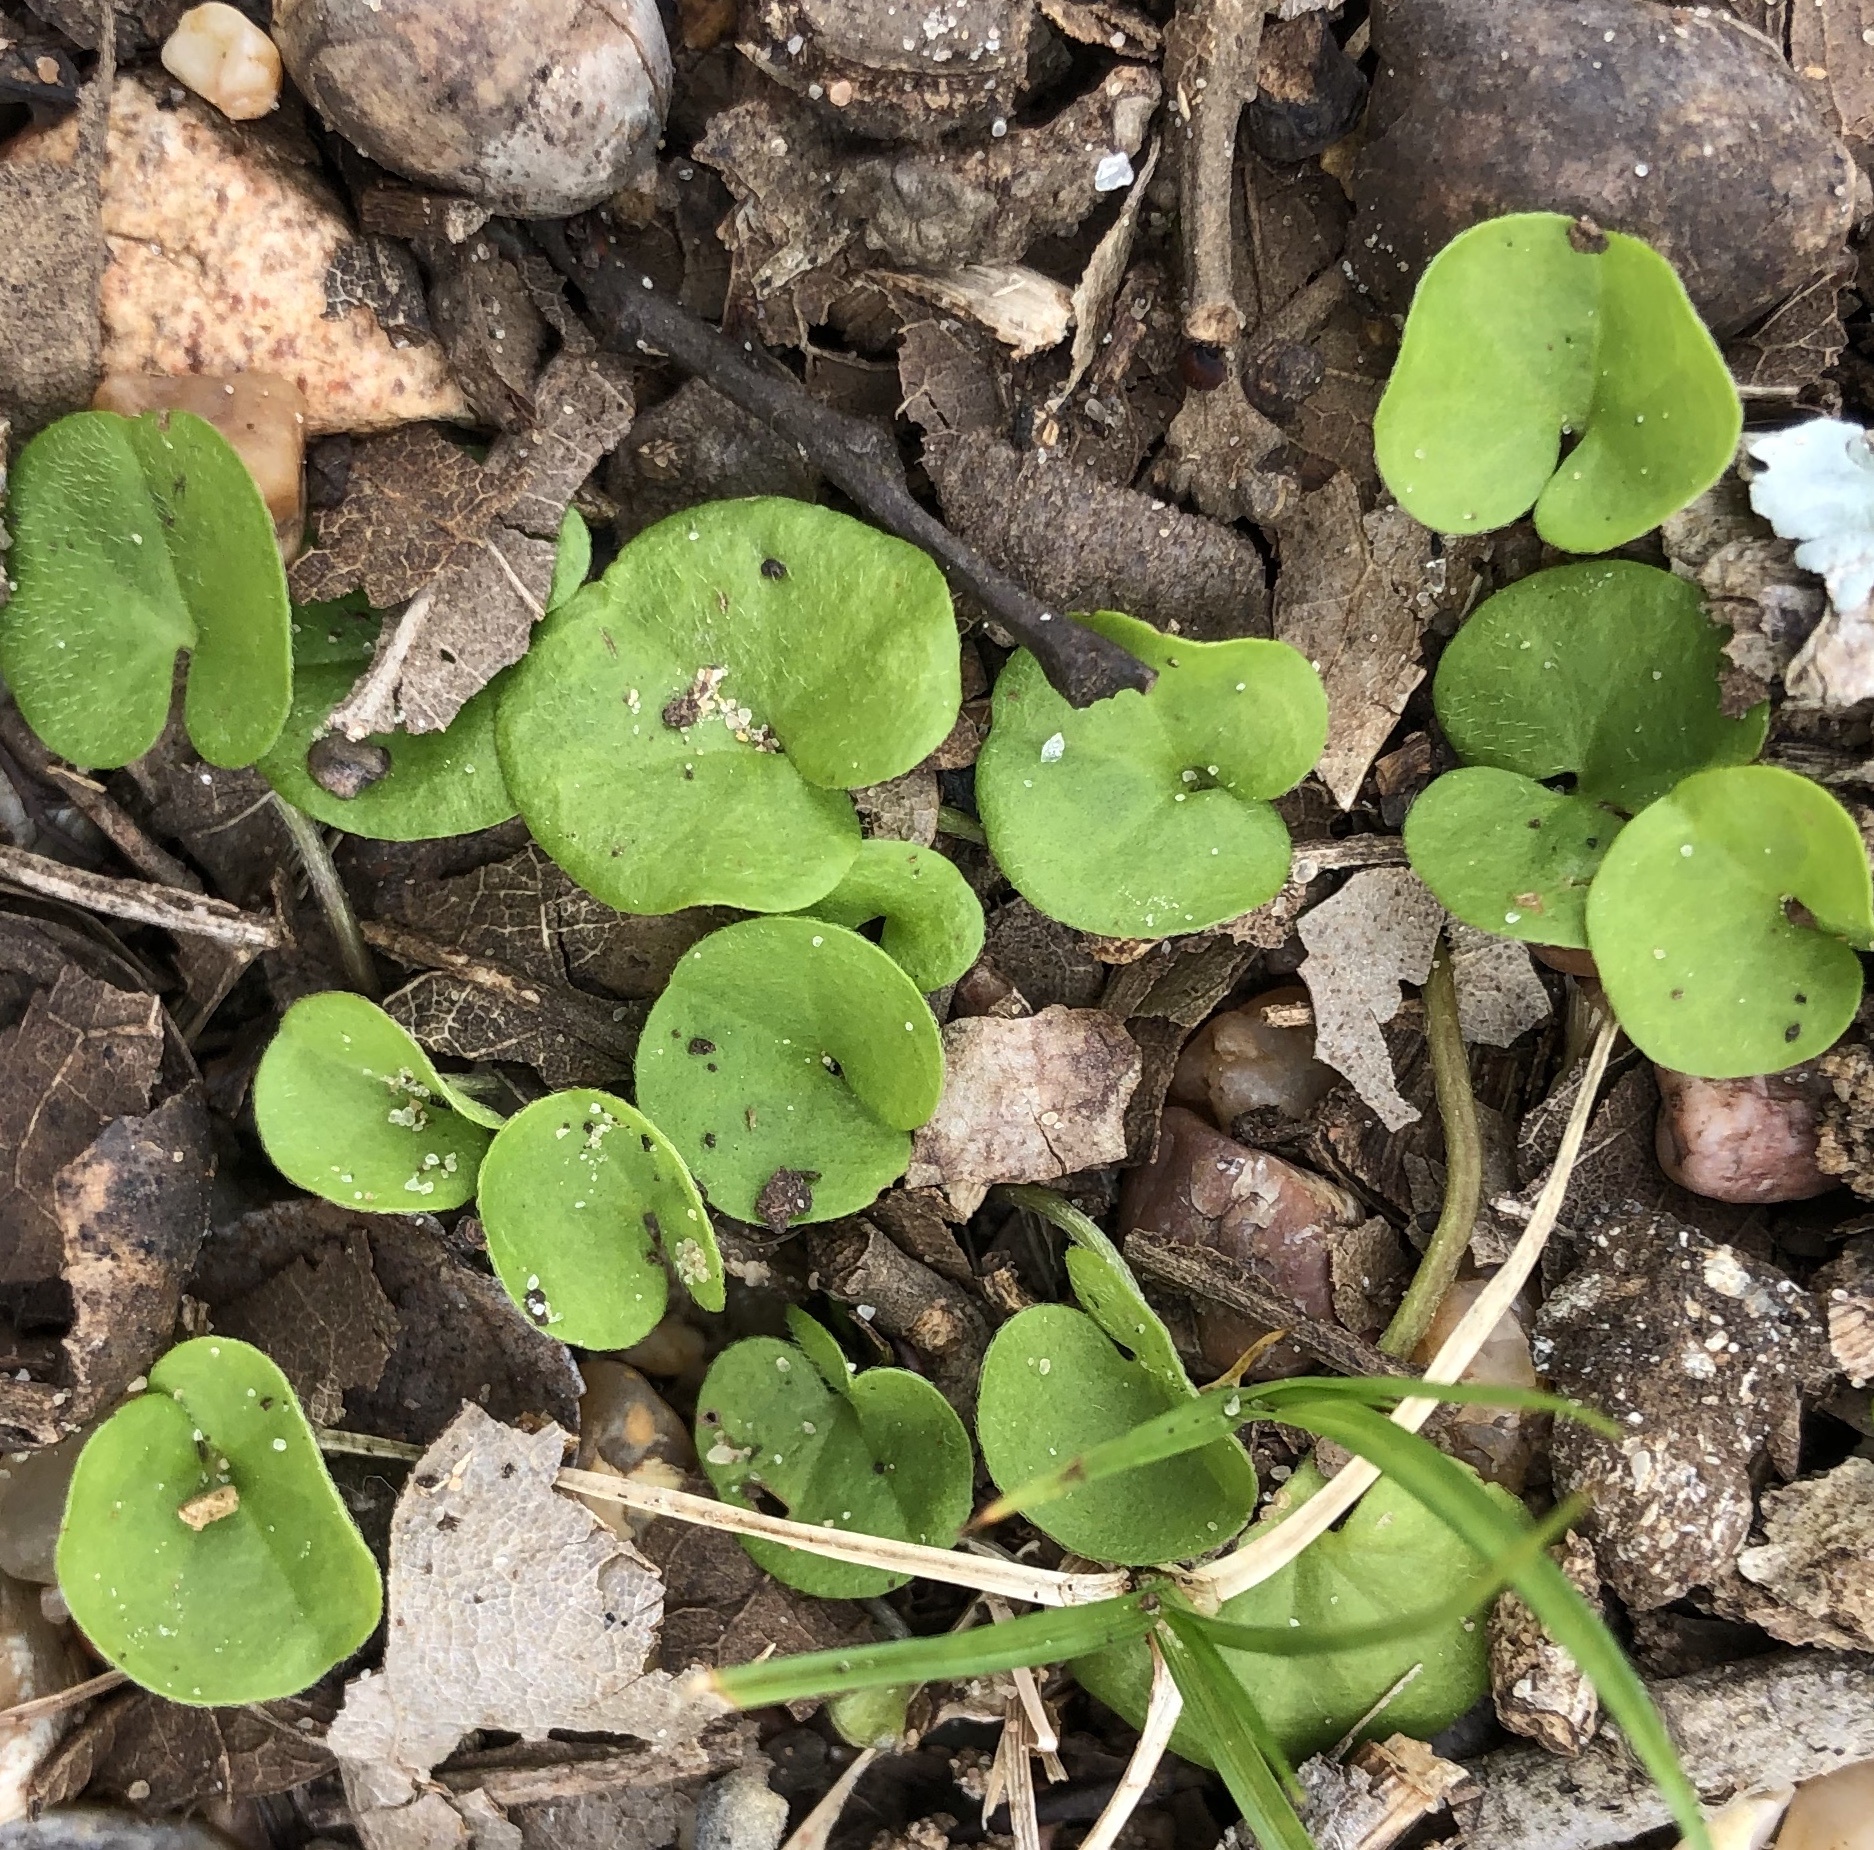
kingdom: Plantae
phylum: Tracheophyta
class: Magnoliopsida
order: Solanales
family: Convolvulaceae
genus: Dichondra
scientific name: Dichondra carolinensis
